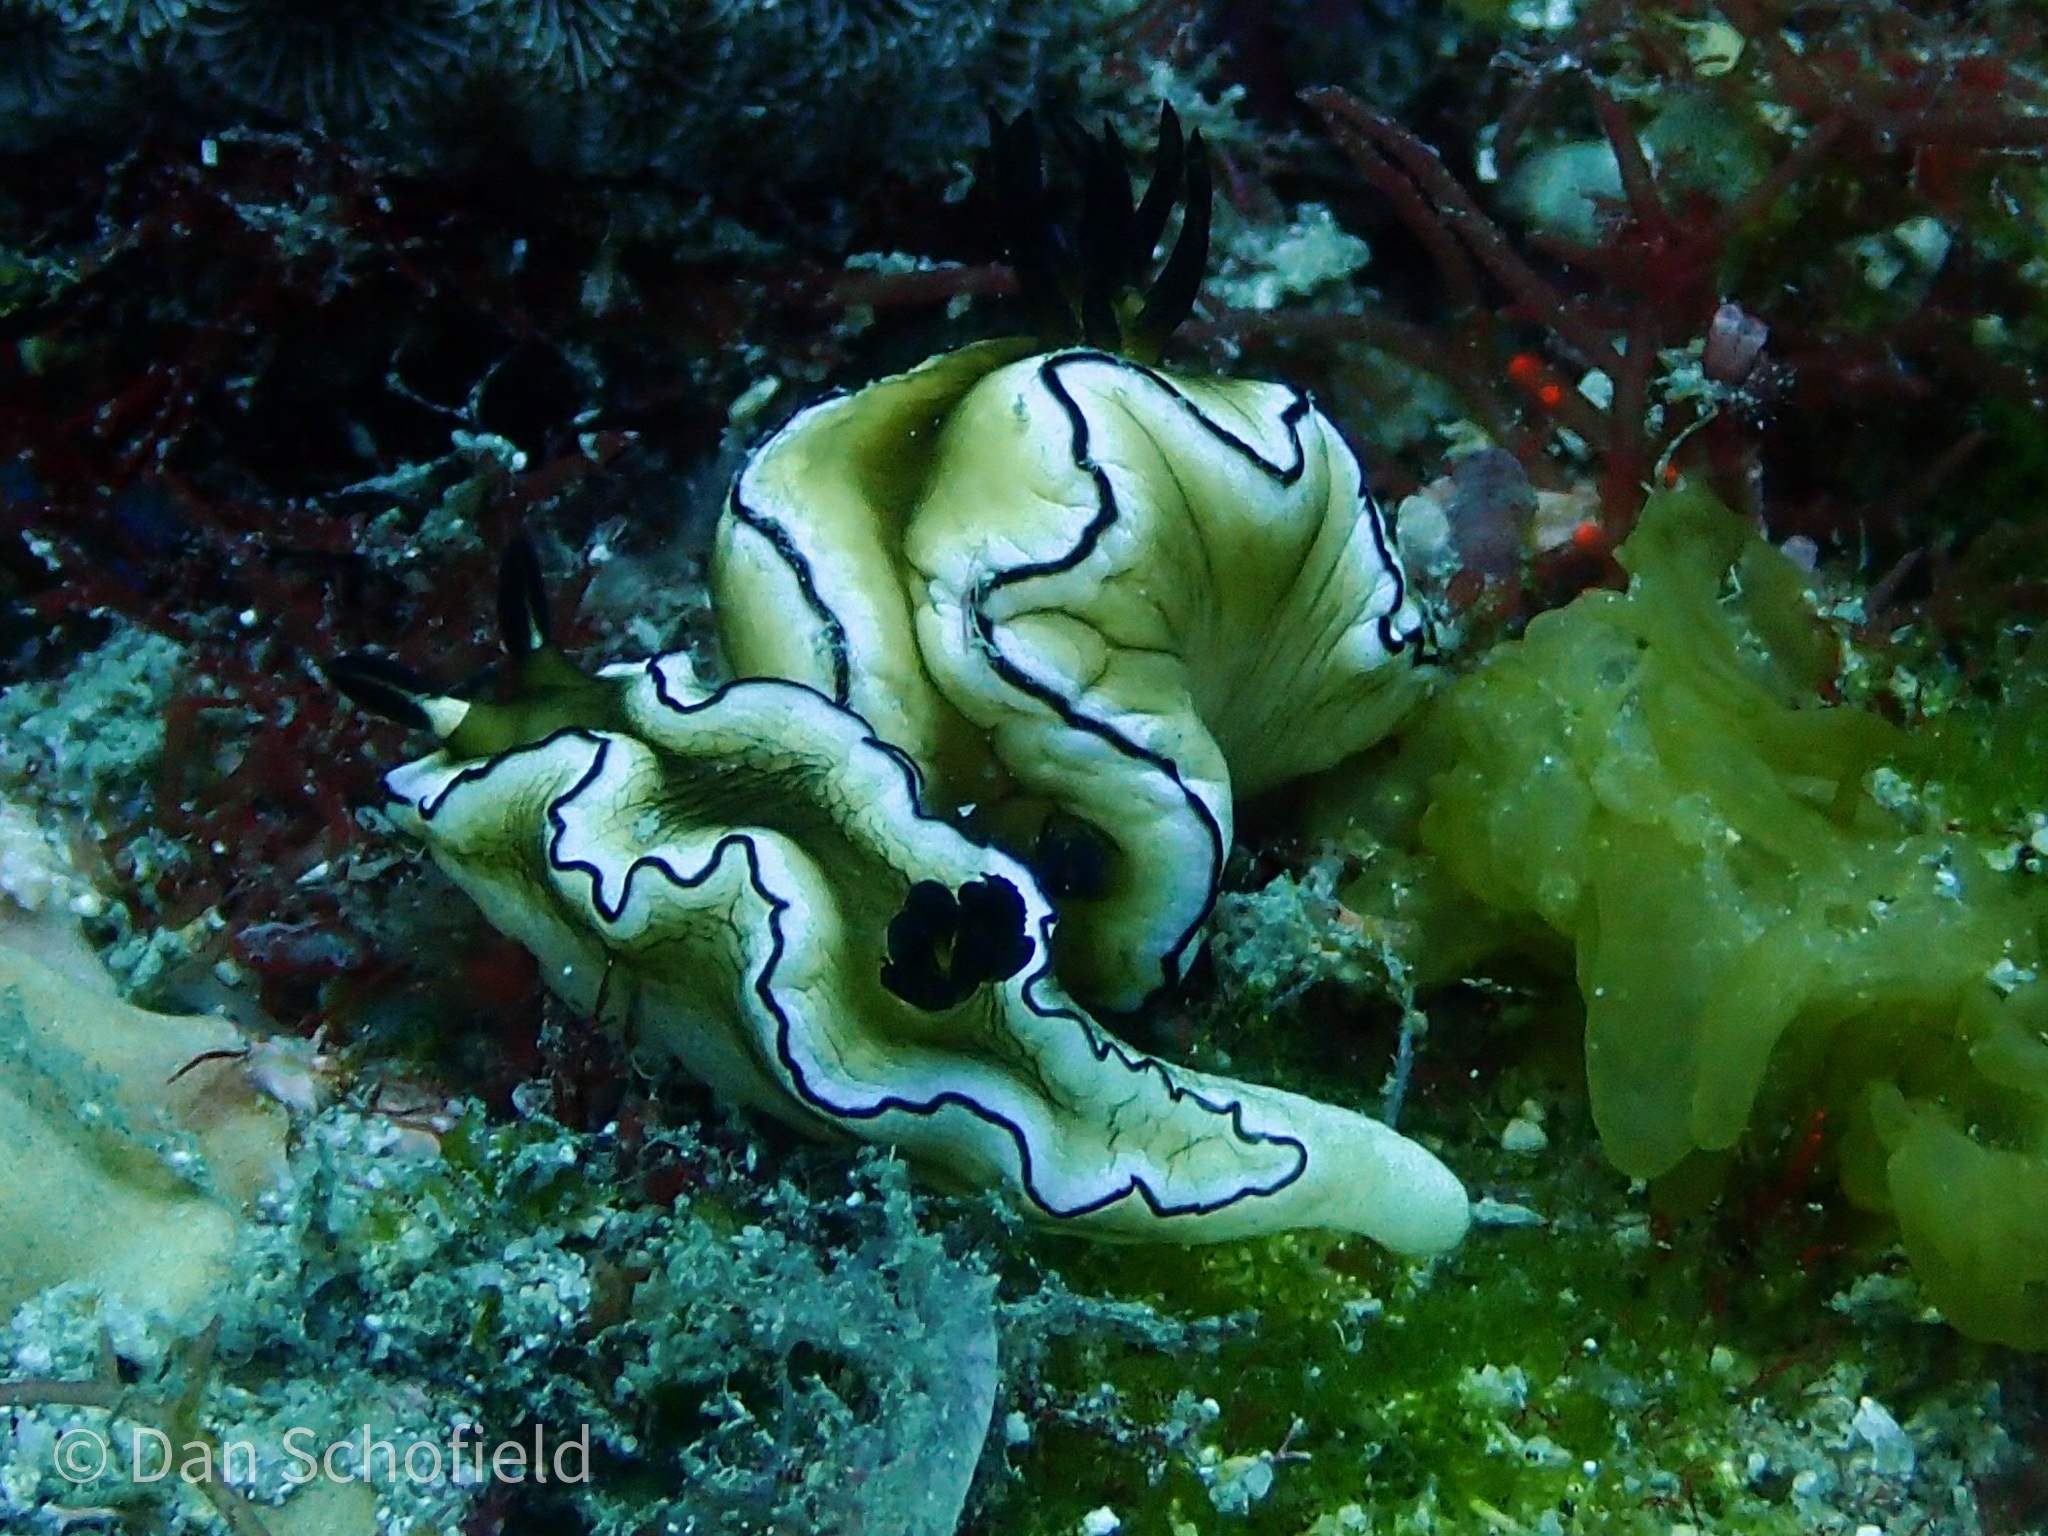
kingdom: Animalia
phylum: Mollusca
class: Gastropoda
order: Nudibranchia
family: Chromodorididae
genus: Doriprismatica
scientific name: Doriprismatica atromarginata
